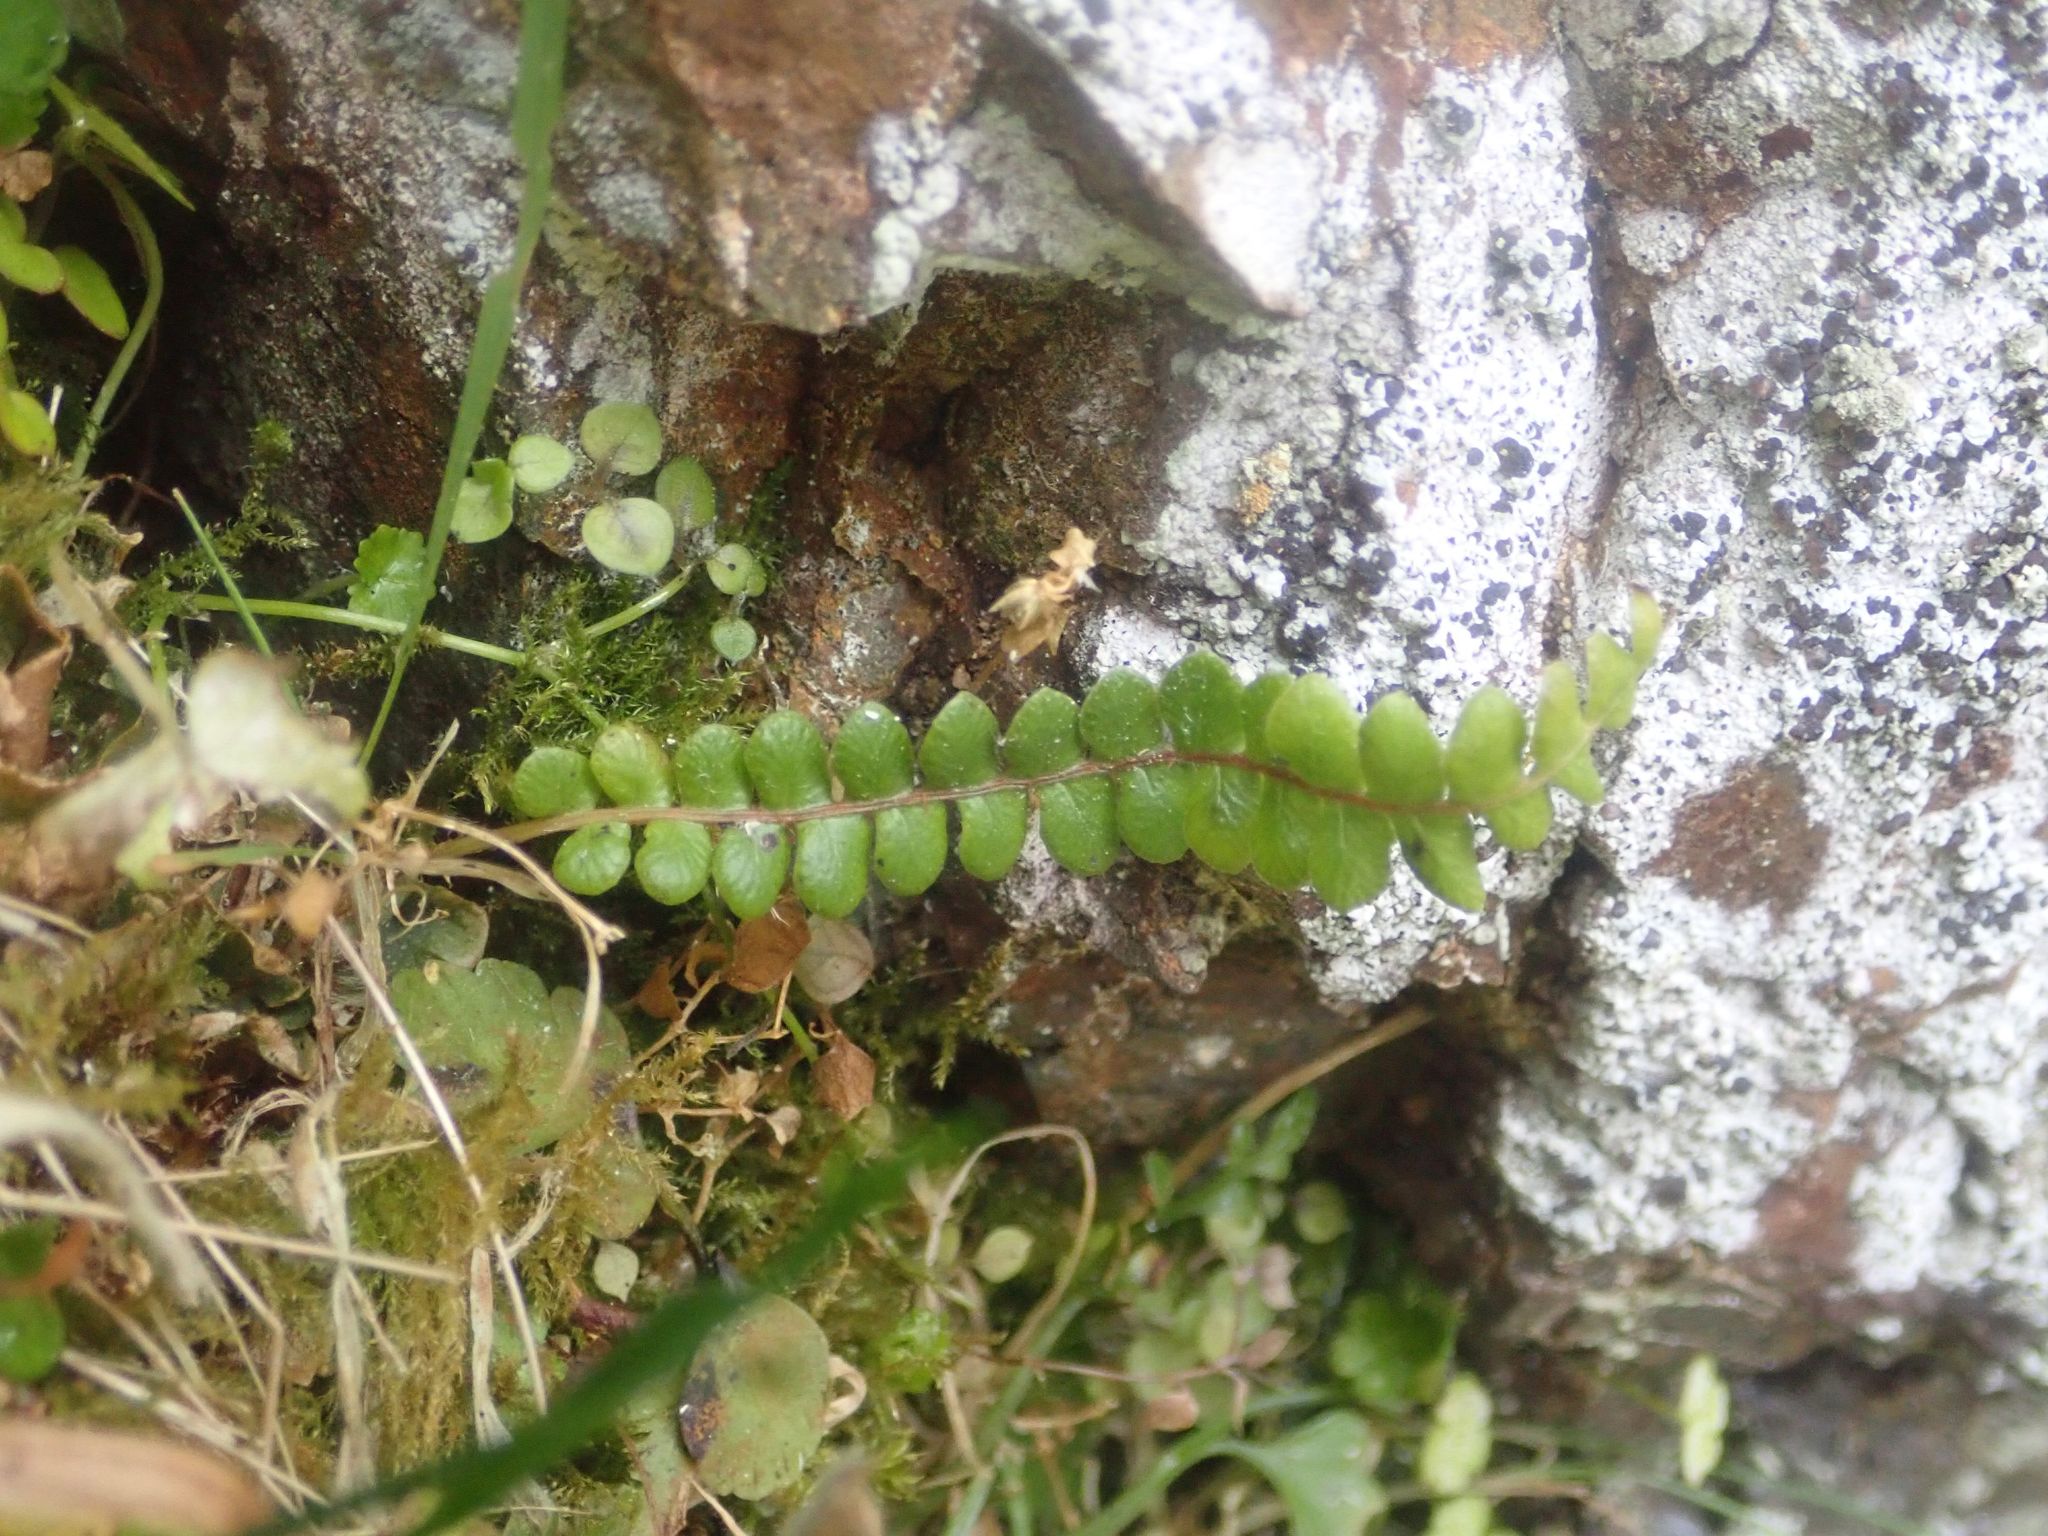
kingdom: Plantae
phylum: Tracheophyta
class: Polypodiopsida
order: Polypodiales
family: Blechnaceae
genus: Austroblechnum
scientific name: Austroblechnum penna-marina
